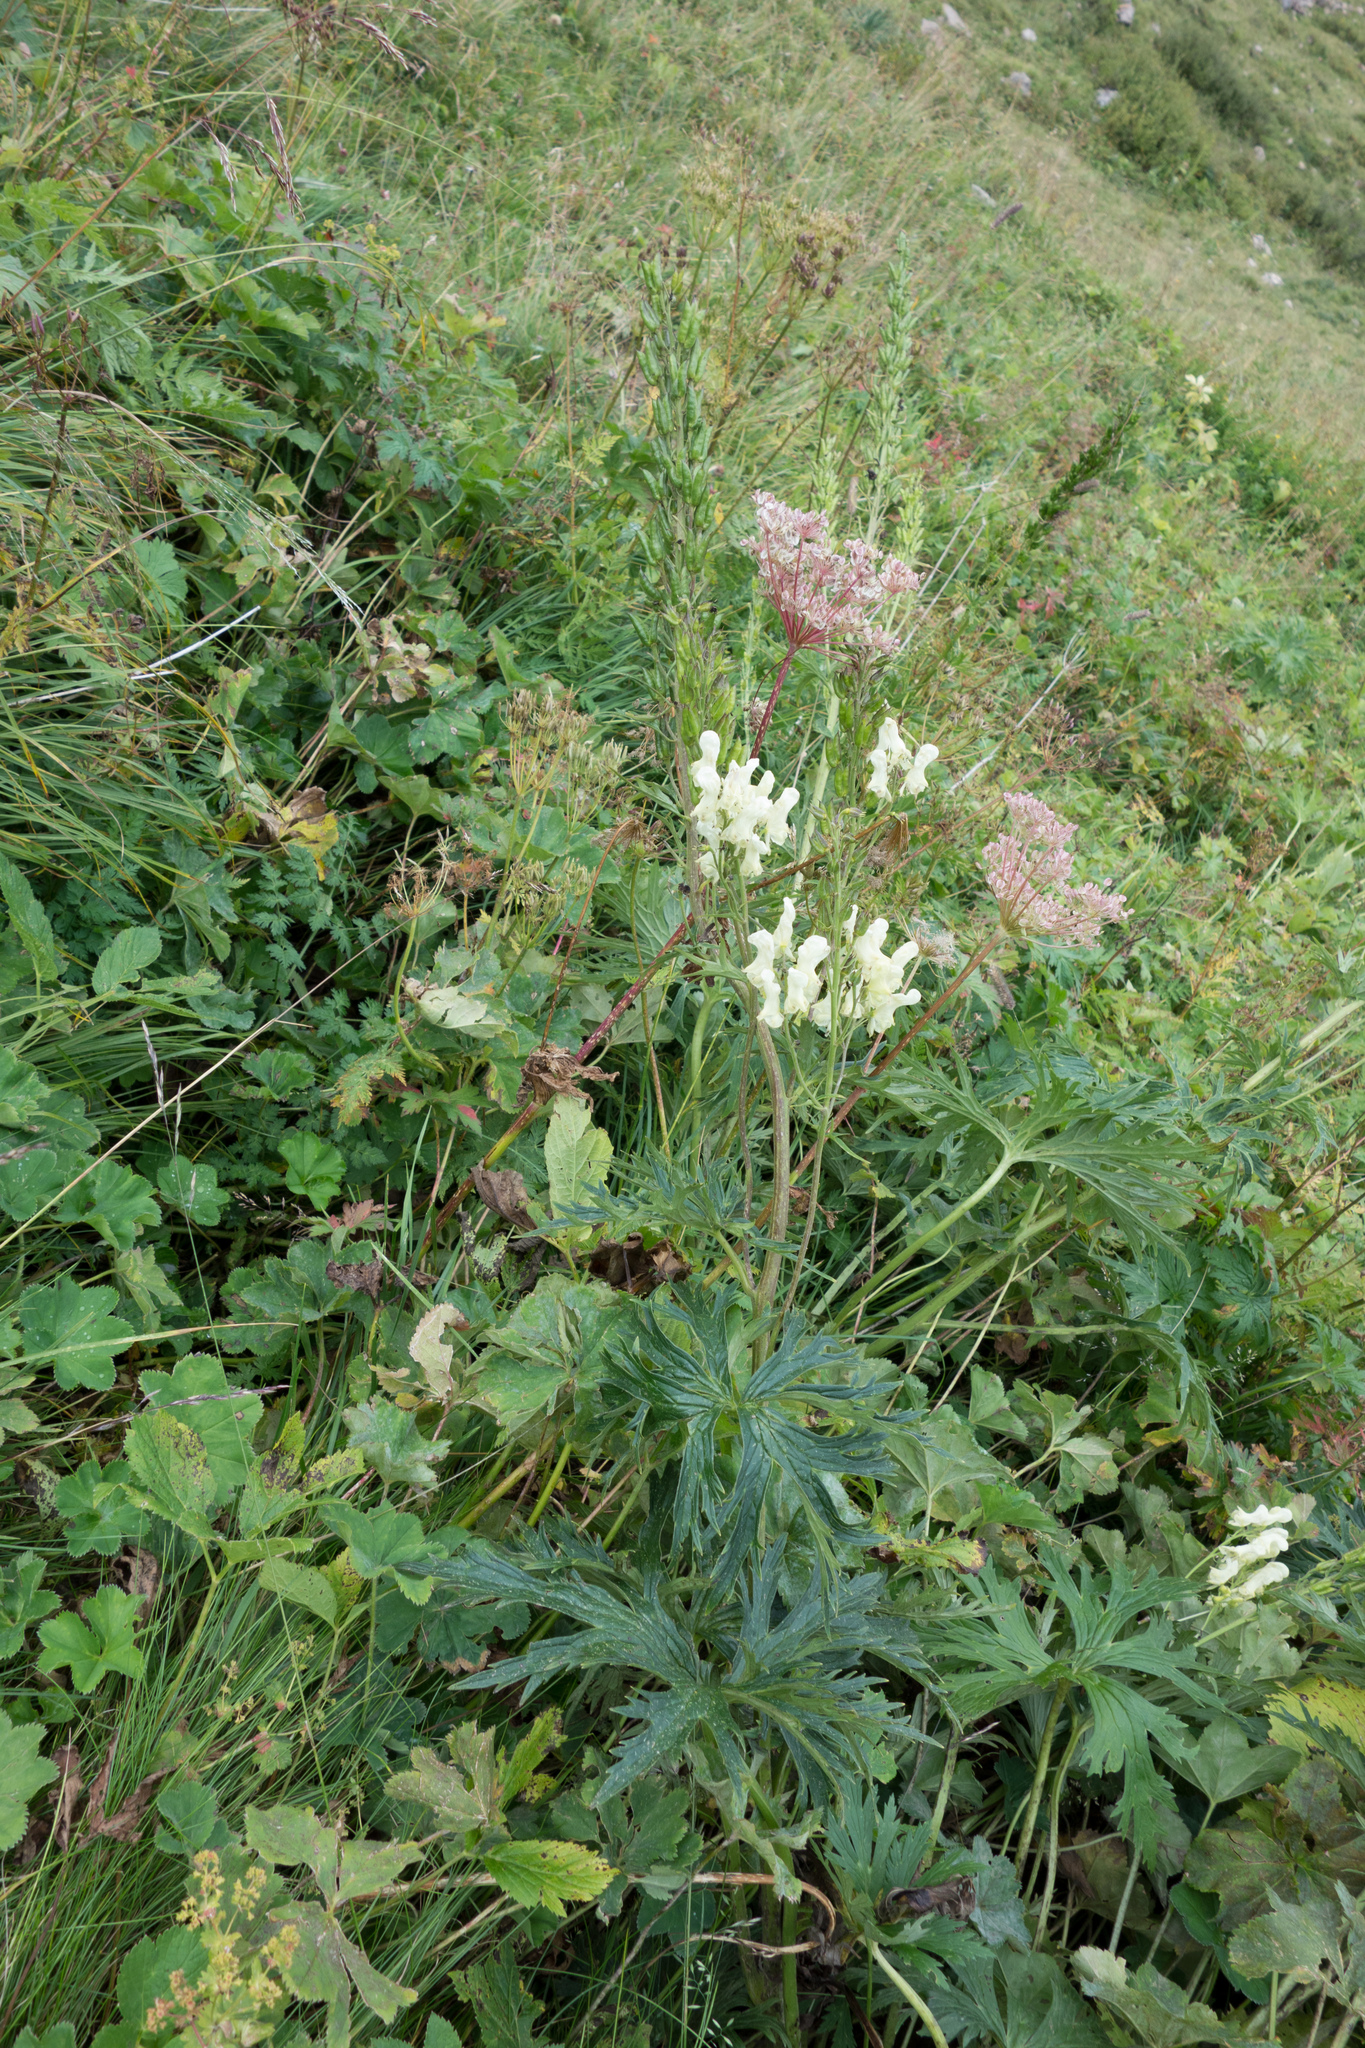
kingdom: Plantae
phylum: Tracheophyta
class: Magnoliopsida
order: Ranunculales
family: Ranunculaceae
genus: Aconitum
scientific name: Aconitum lycoctonum
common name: Wolf's-bane
